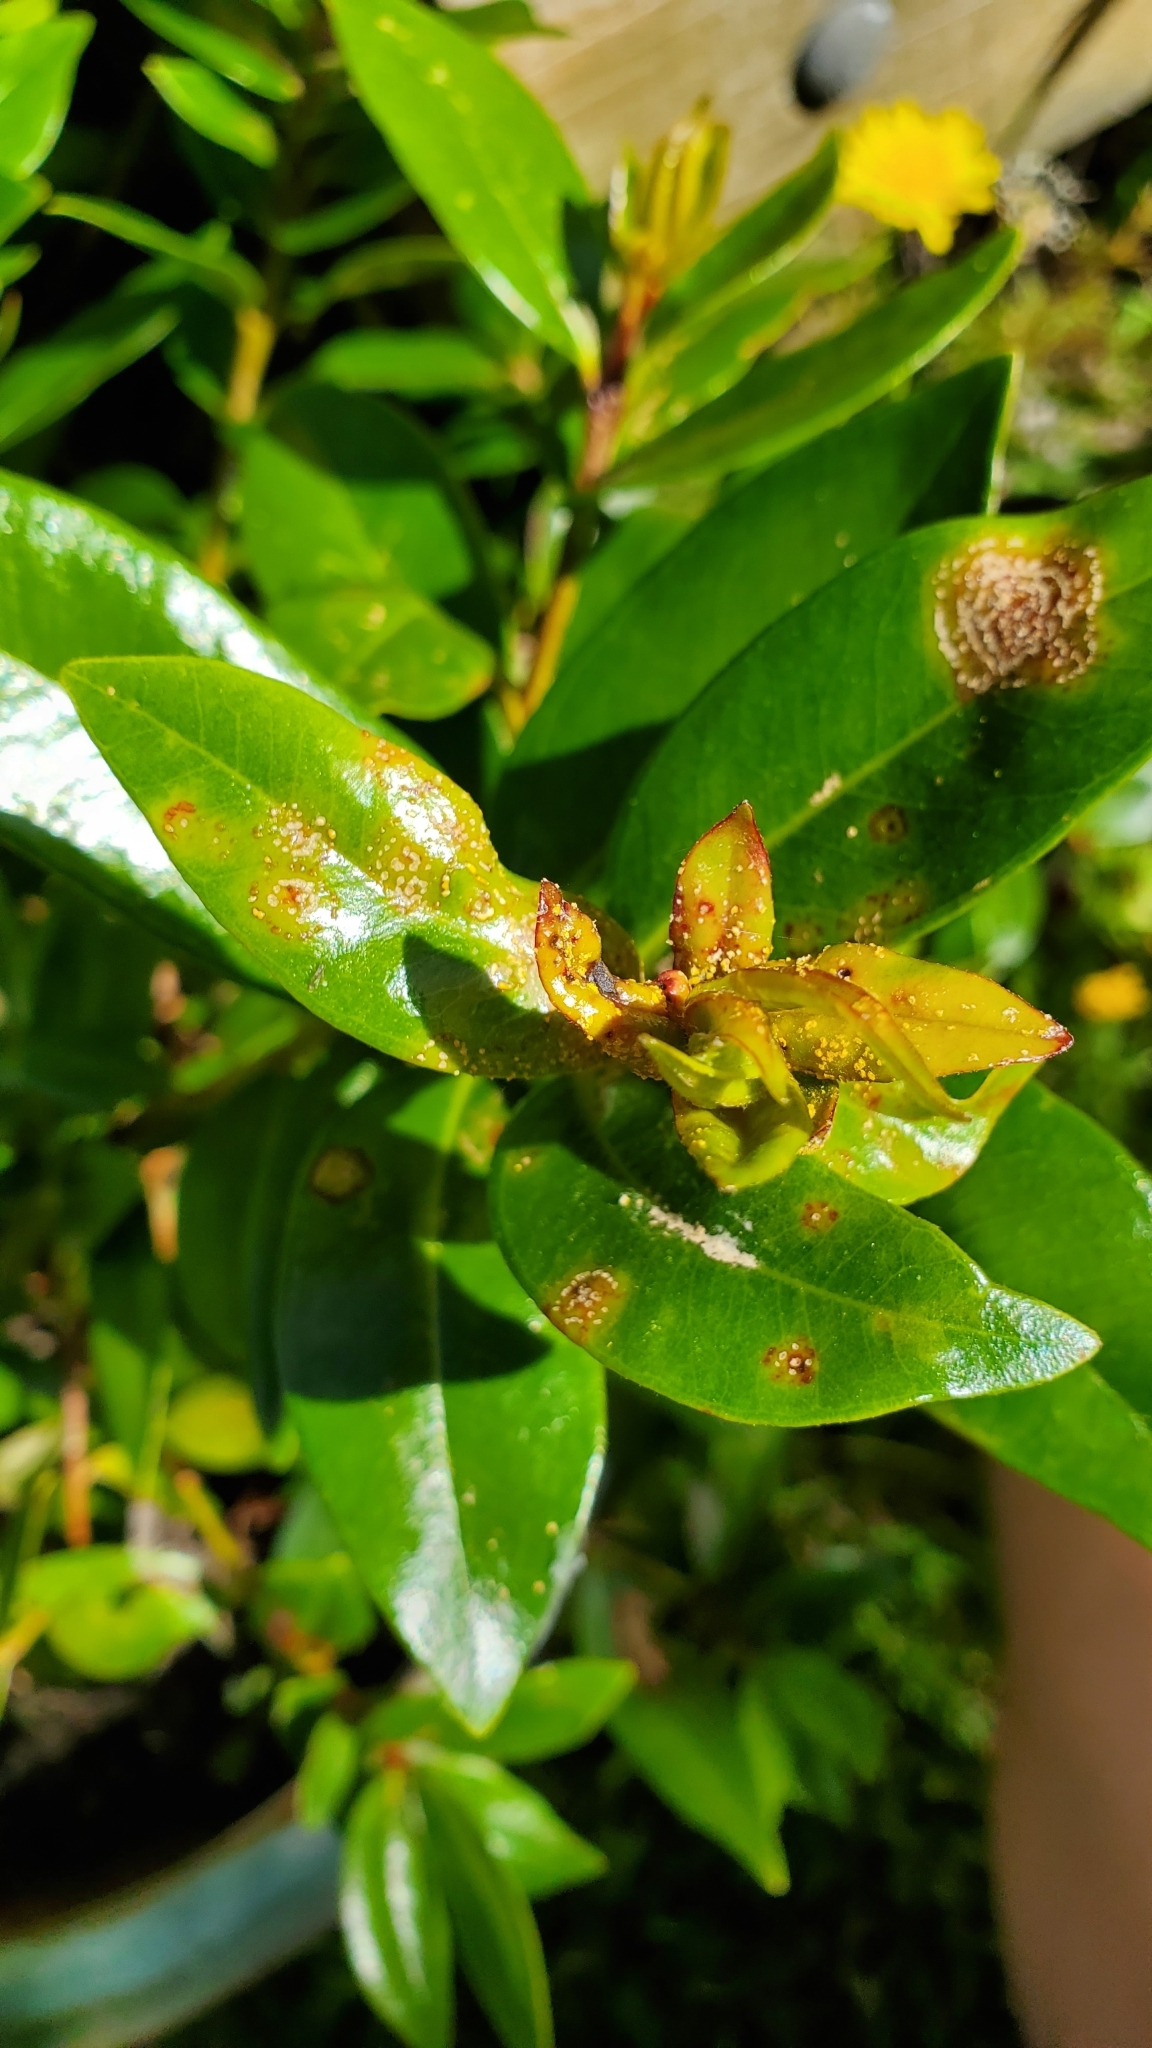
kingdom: Fungi
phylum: Basidiomycota
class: Pucciniomycetes
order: Pucciniales
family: Sphaerophragmiaceae
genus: Austropuccinia
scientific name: Austropuccinia psidii
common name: Myrtle rust
